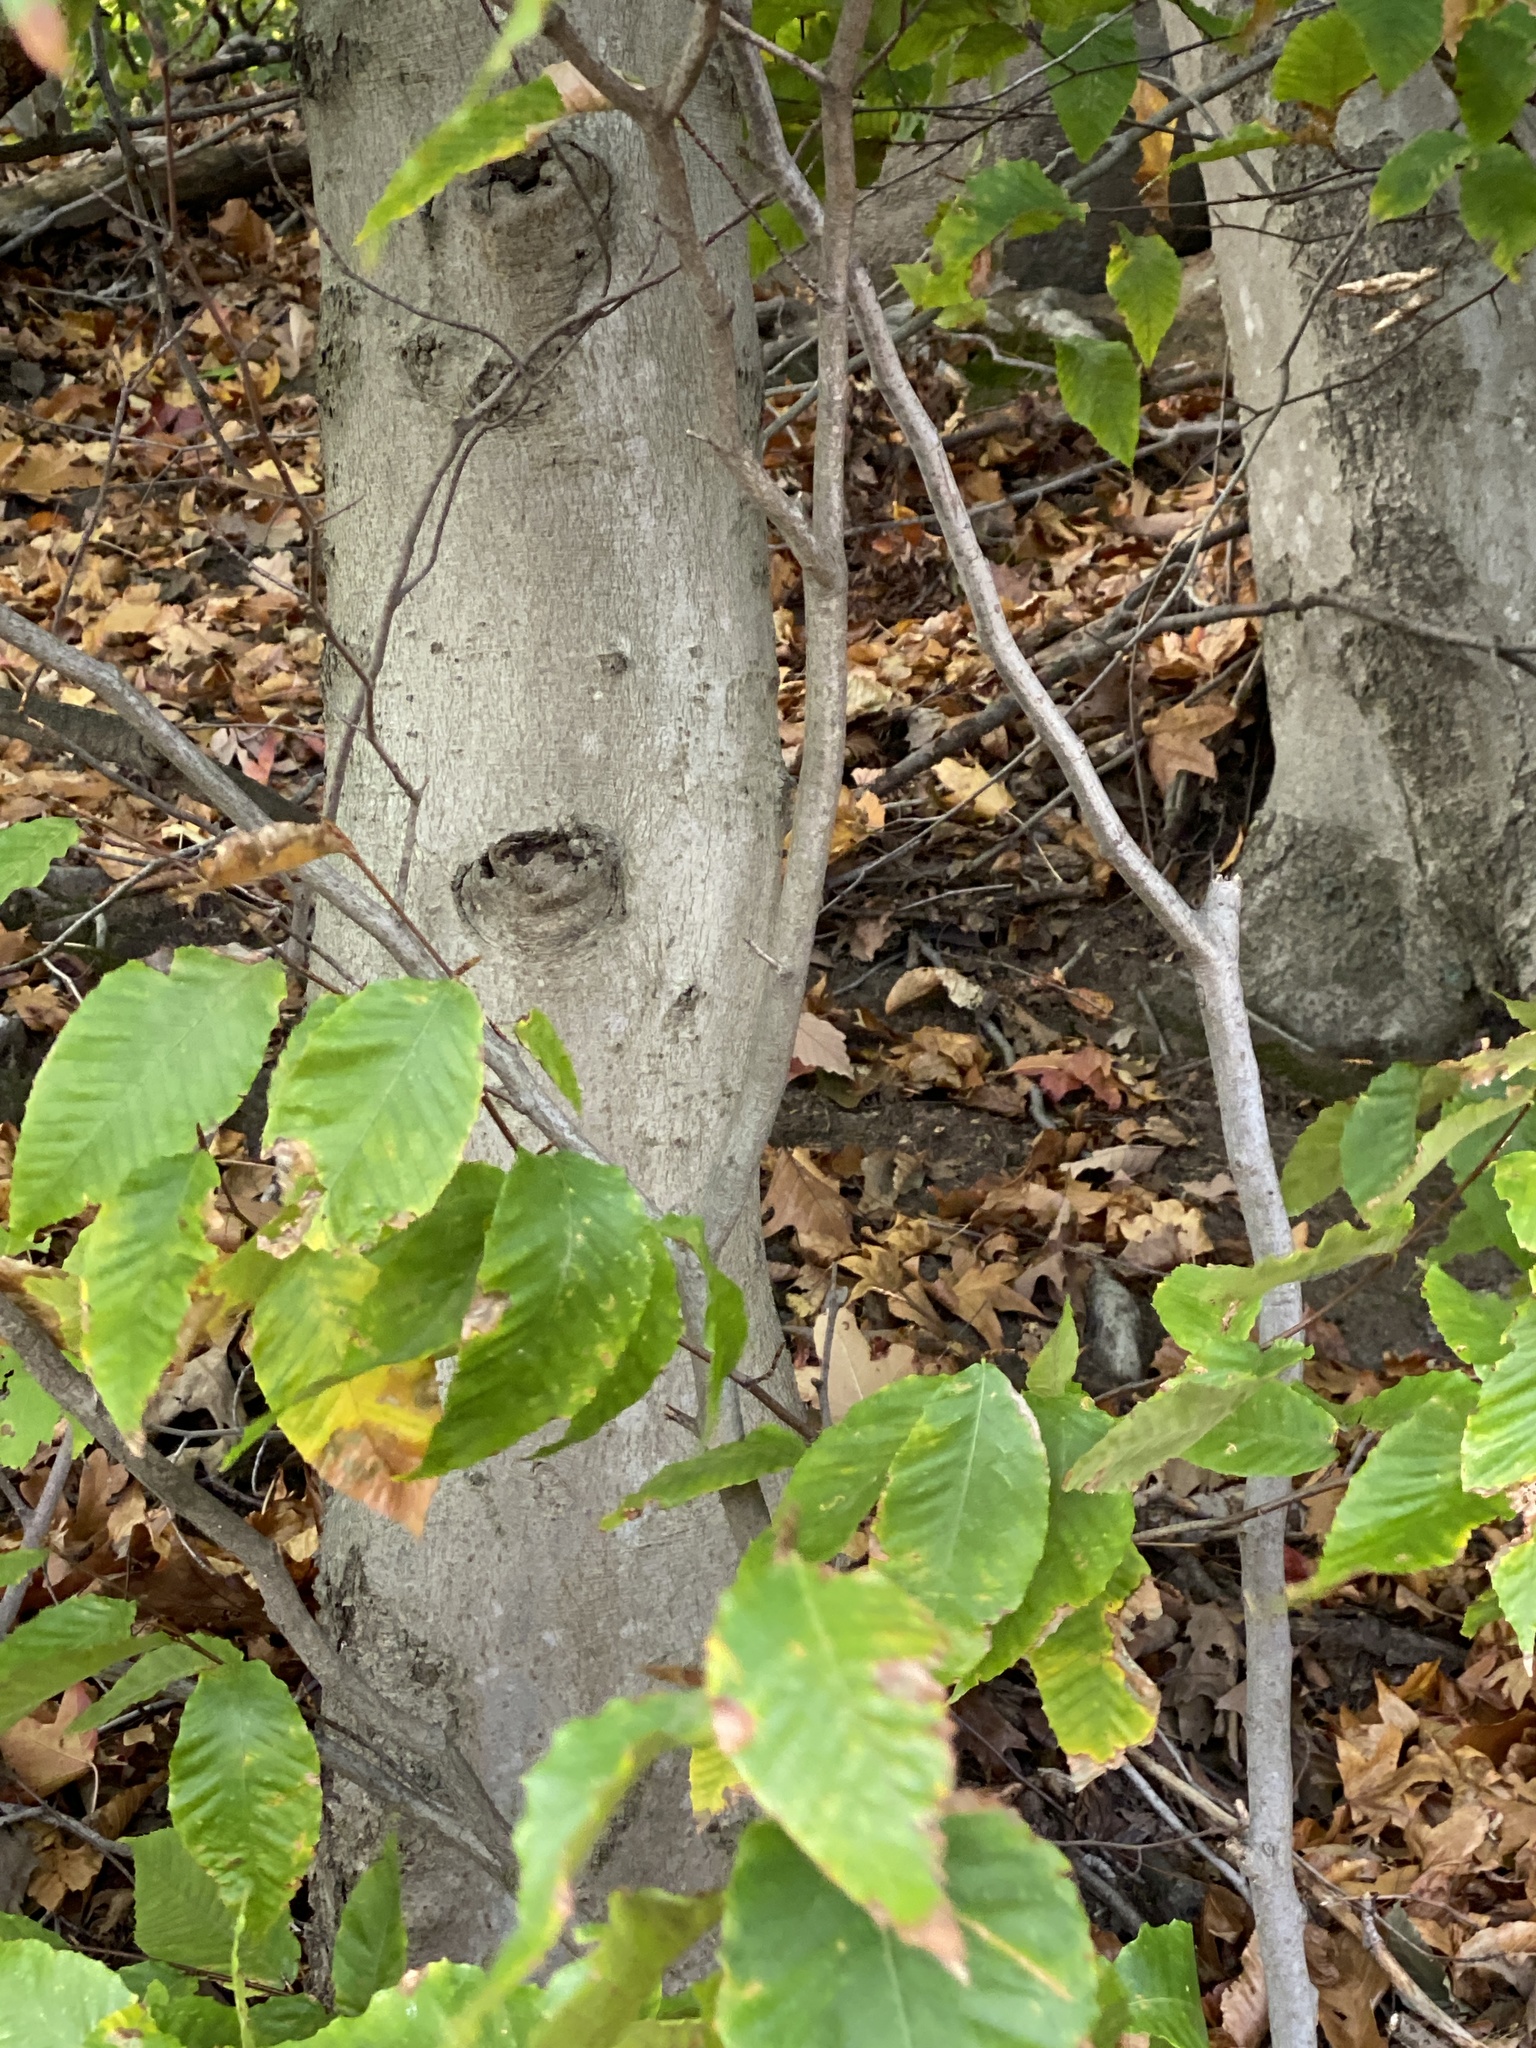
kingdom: Plantae
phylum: Tracheophyta
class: Magnoliopsida
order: Fagales
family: Fagaceae
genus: Fagus
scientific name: Fagus grandifolia
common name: American beech
